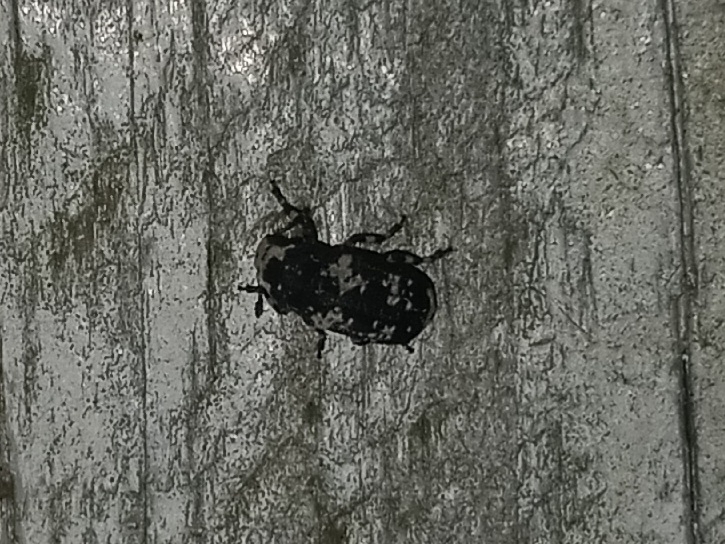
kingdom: Animalia
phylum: Arthropoda
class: Insecta
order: Coleoptera
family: Anthribidae
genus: Euparius
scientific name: Euparius lugubris
